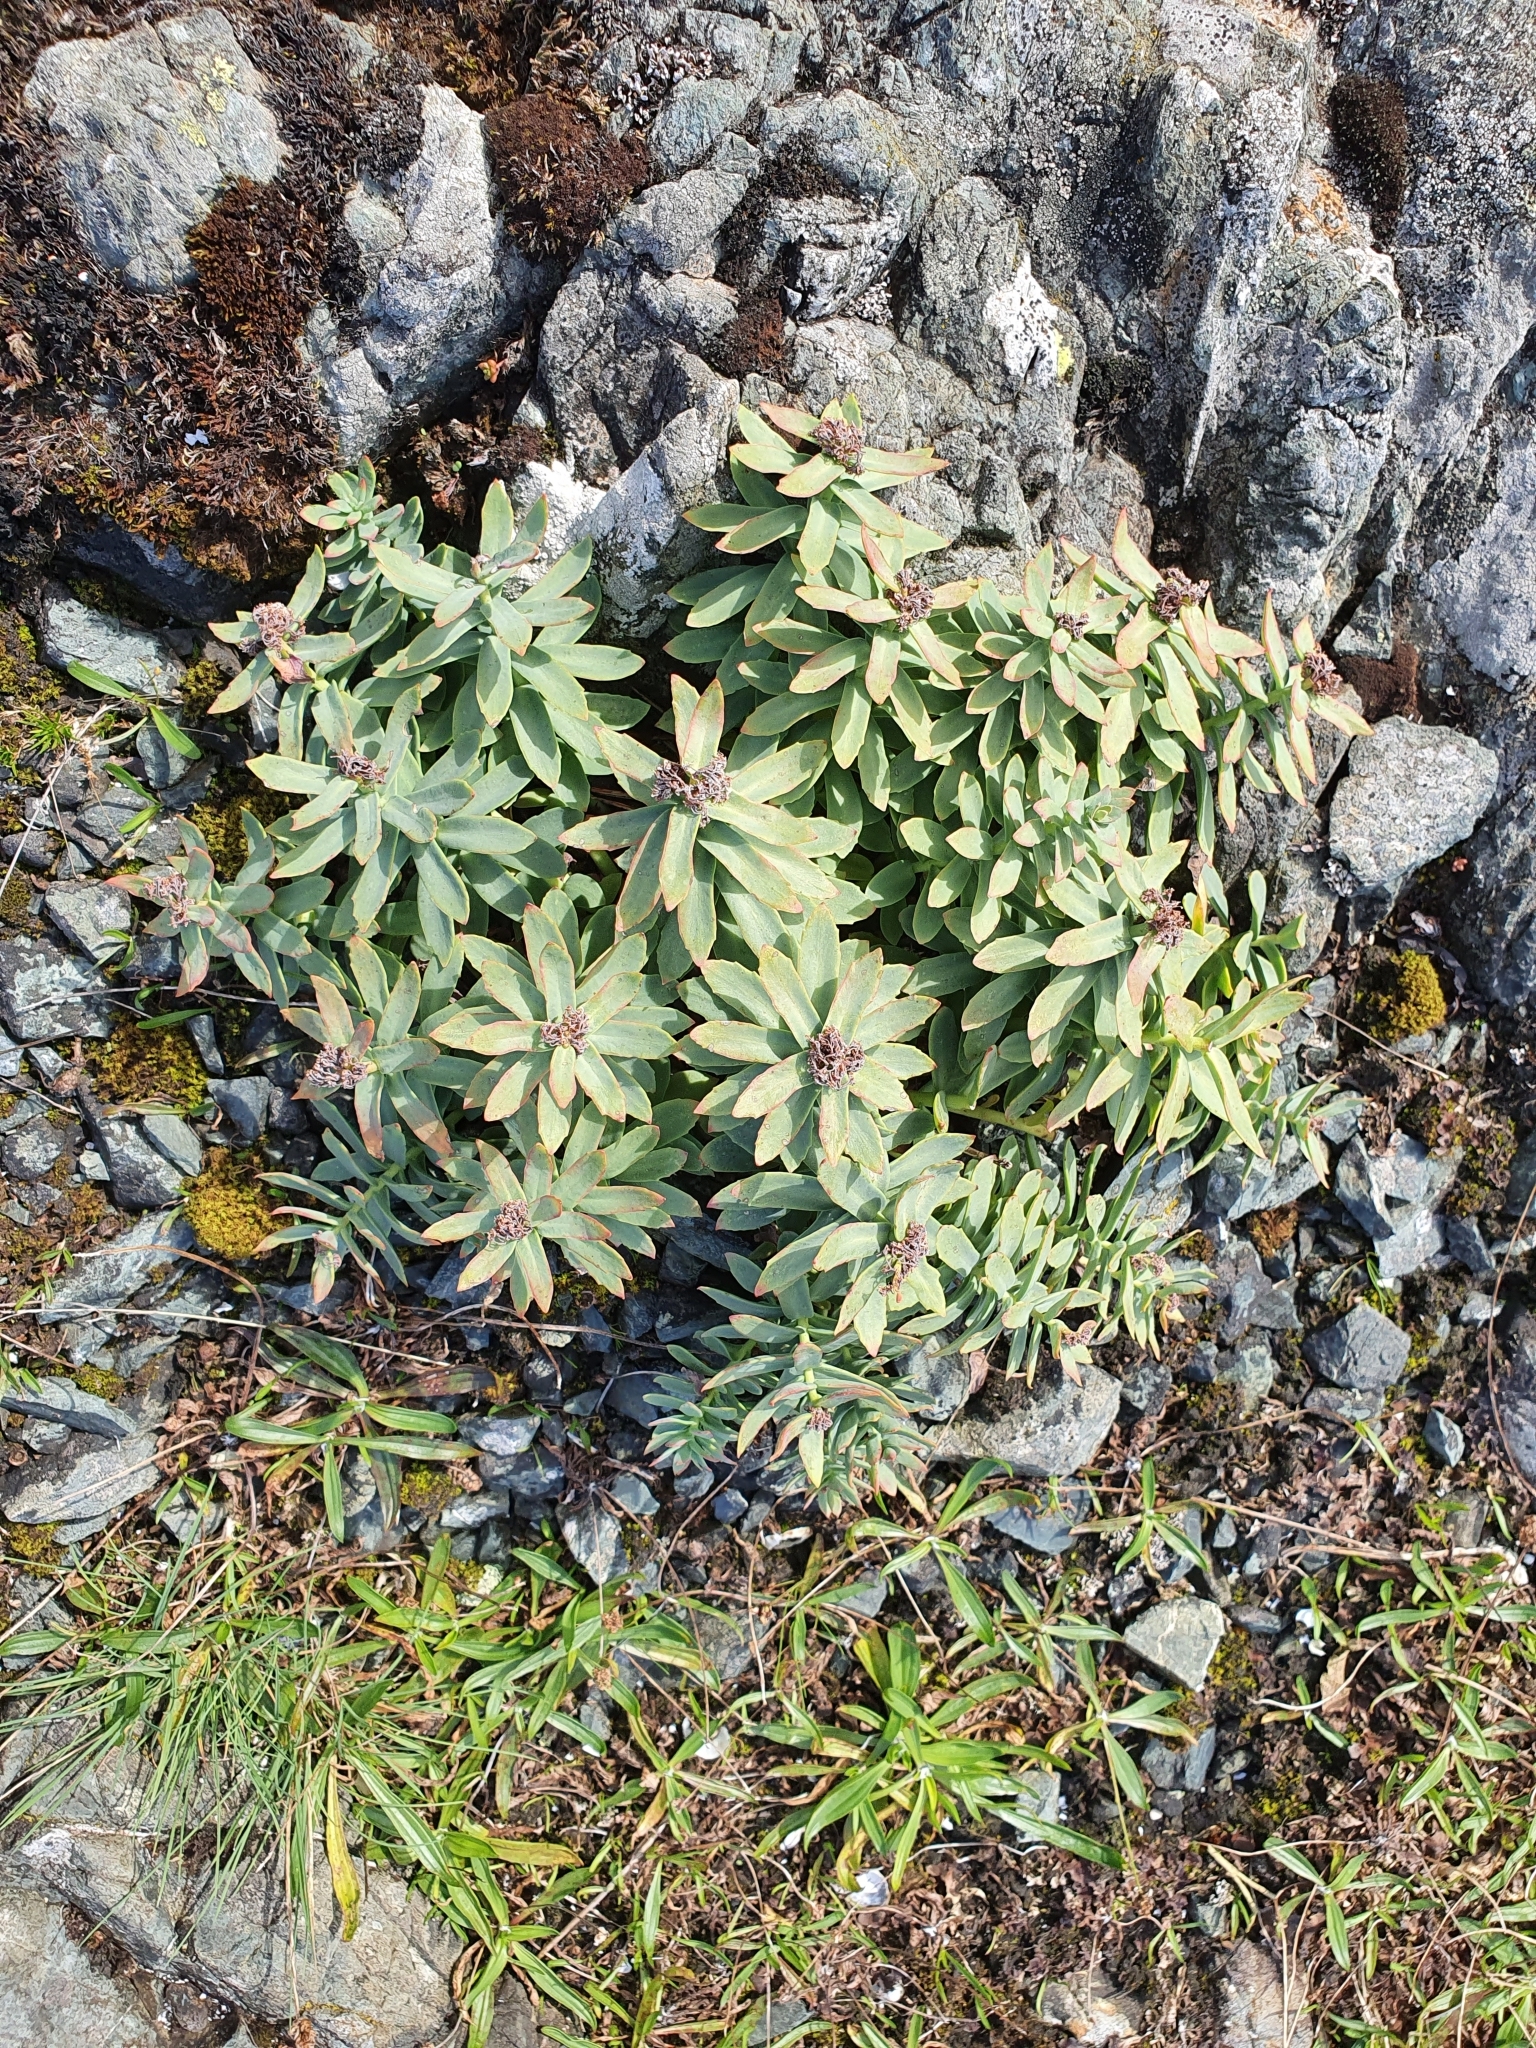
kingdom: Plantae
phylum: Tracheophyta
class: Magnoliopsida
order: Saxifragales
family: Crassulaceae
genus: Rhodiola
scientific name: Rhodiola rosea
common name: Roseroot
